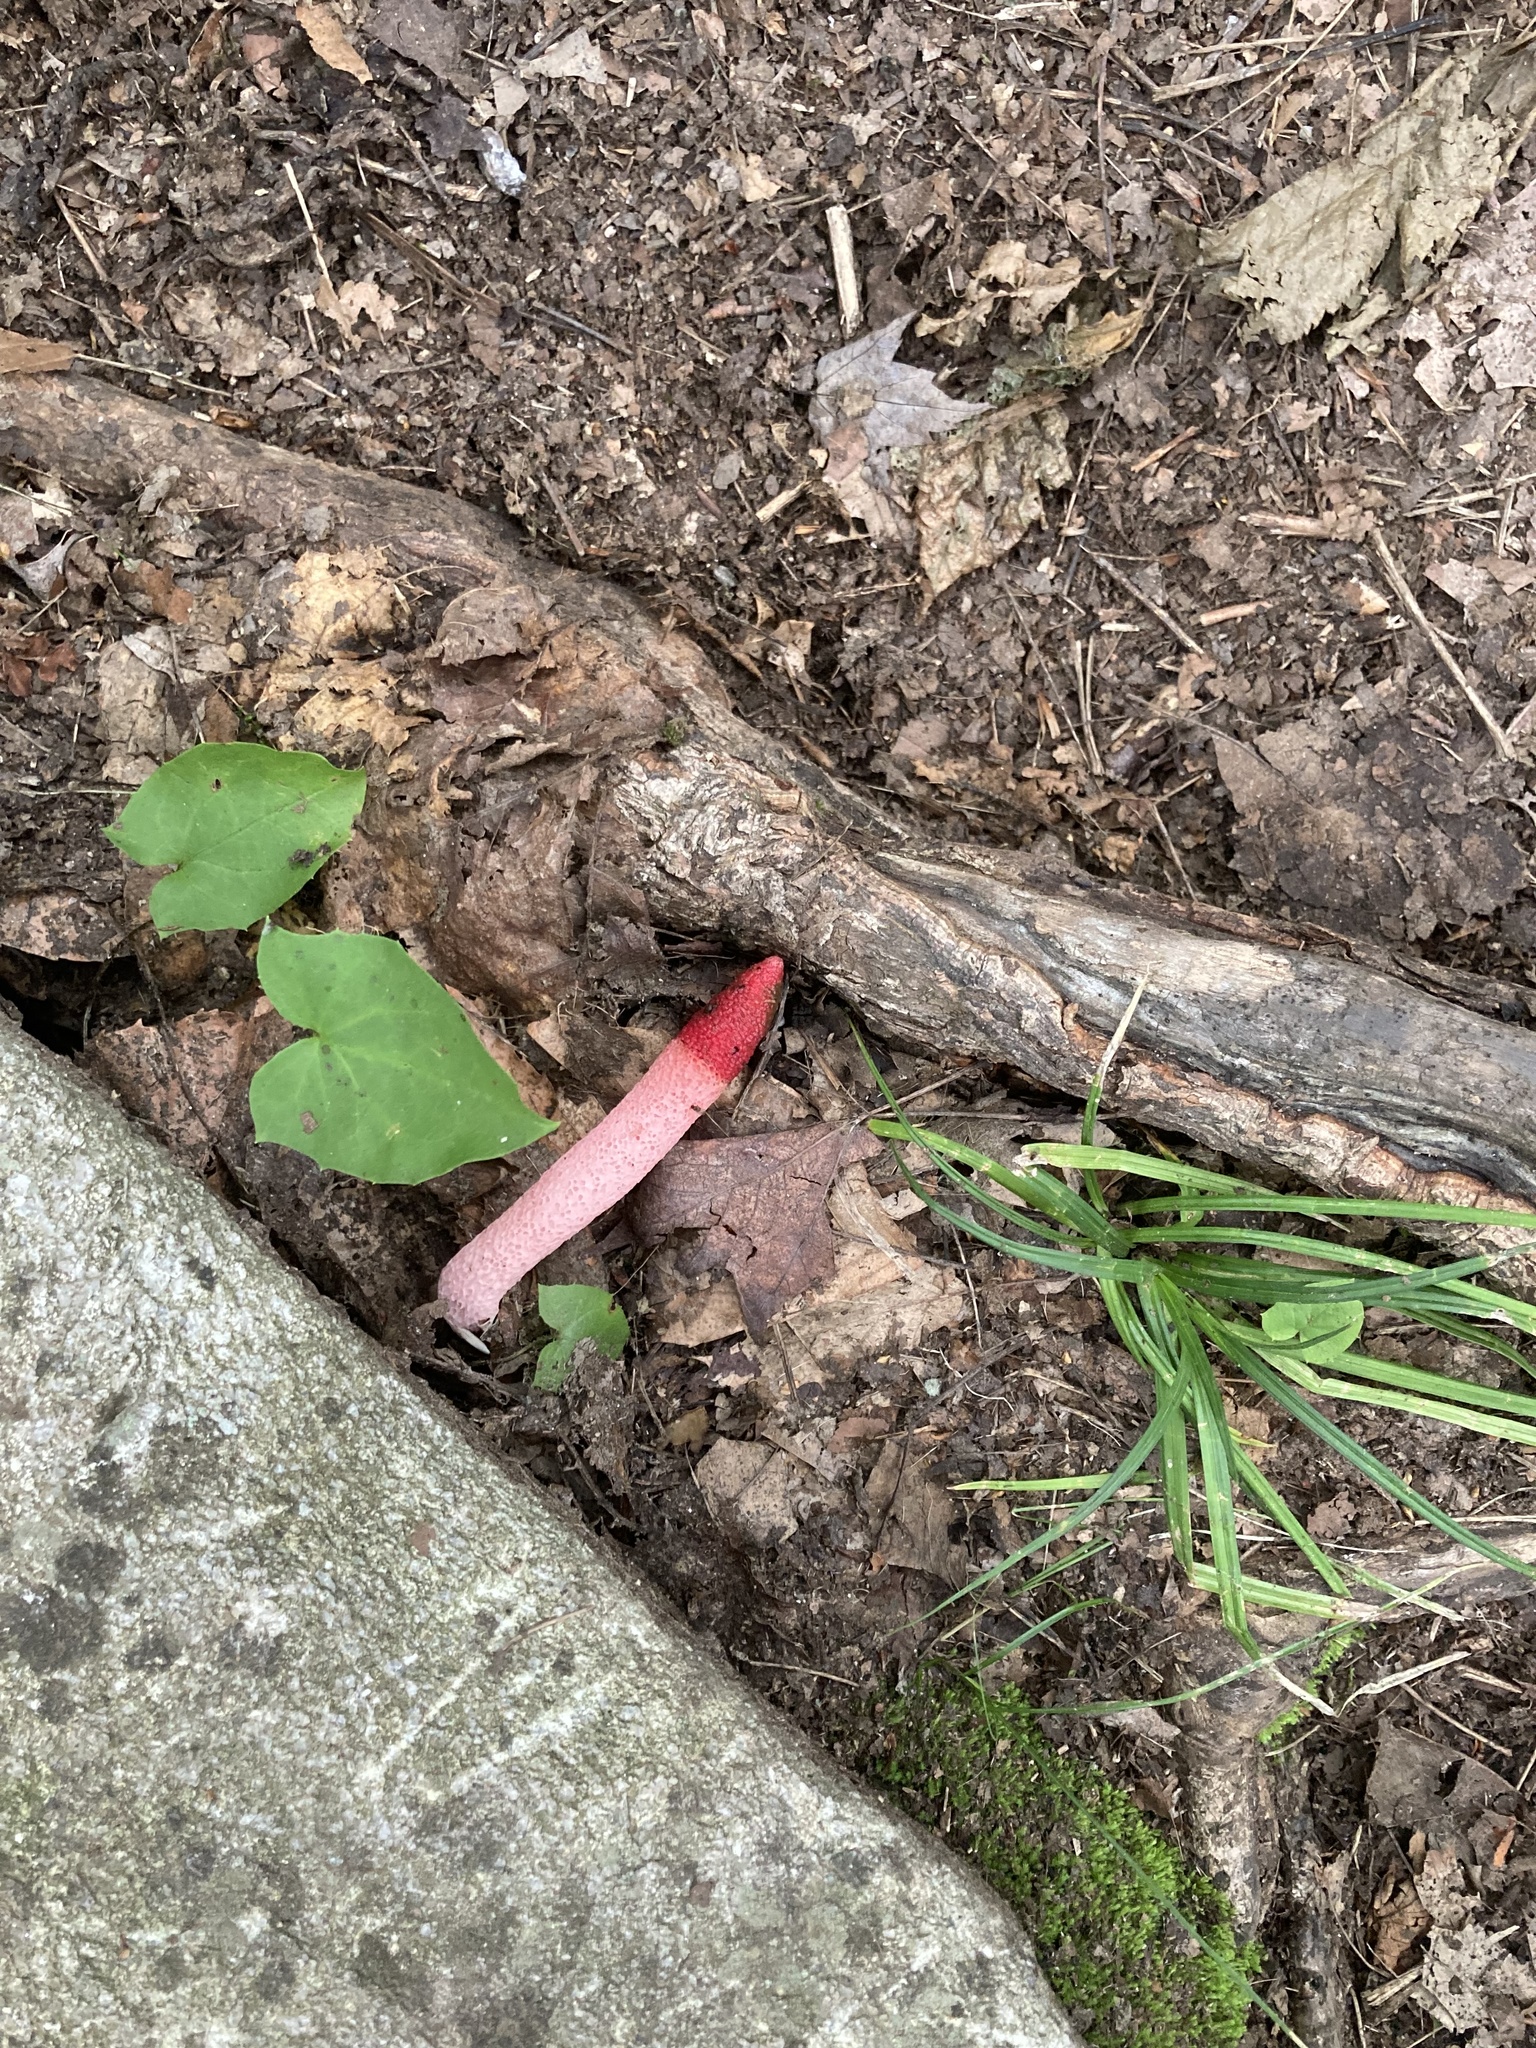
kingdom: Fungi
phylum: Basidiomycota
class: Agaricomycetes
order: Phallales
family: Phallaceae
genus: Mutinus
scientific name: Mutinus ravenelii
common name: Red stinkhorn
